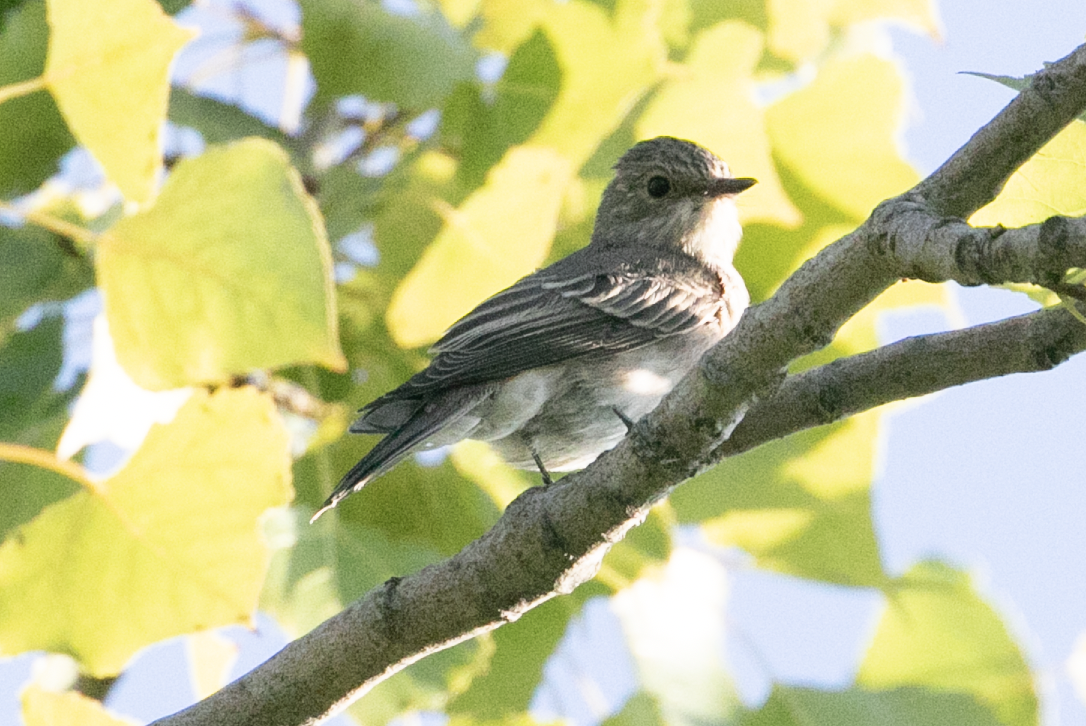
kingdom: Animalia
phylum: Chordata
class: Aves
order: Passeriformes
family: Muscicapidae
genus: Muscicapa
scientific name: Muscicapa striata
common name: Spotted flycatcher
